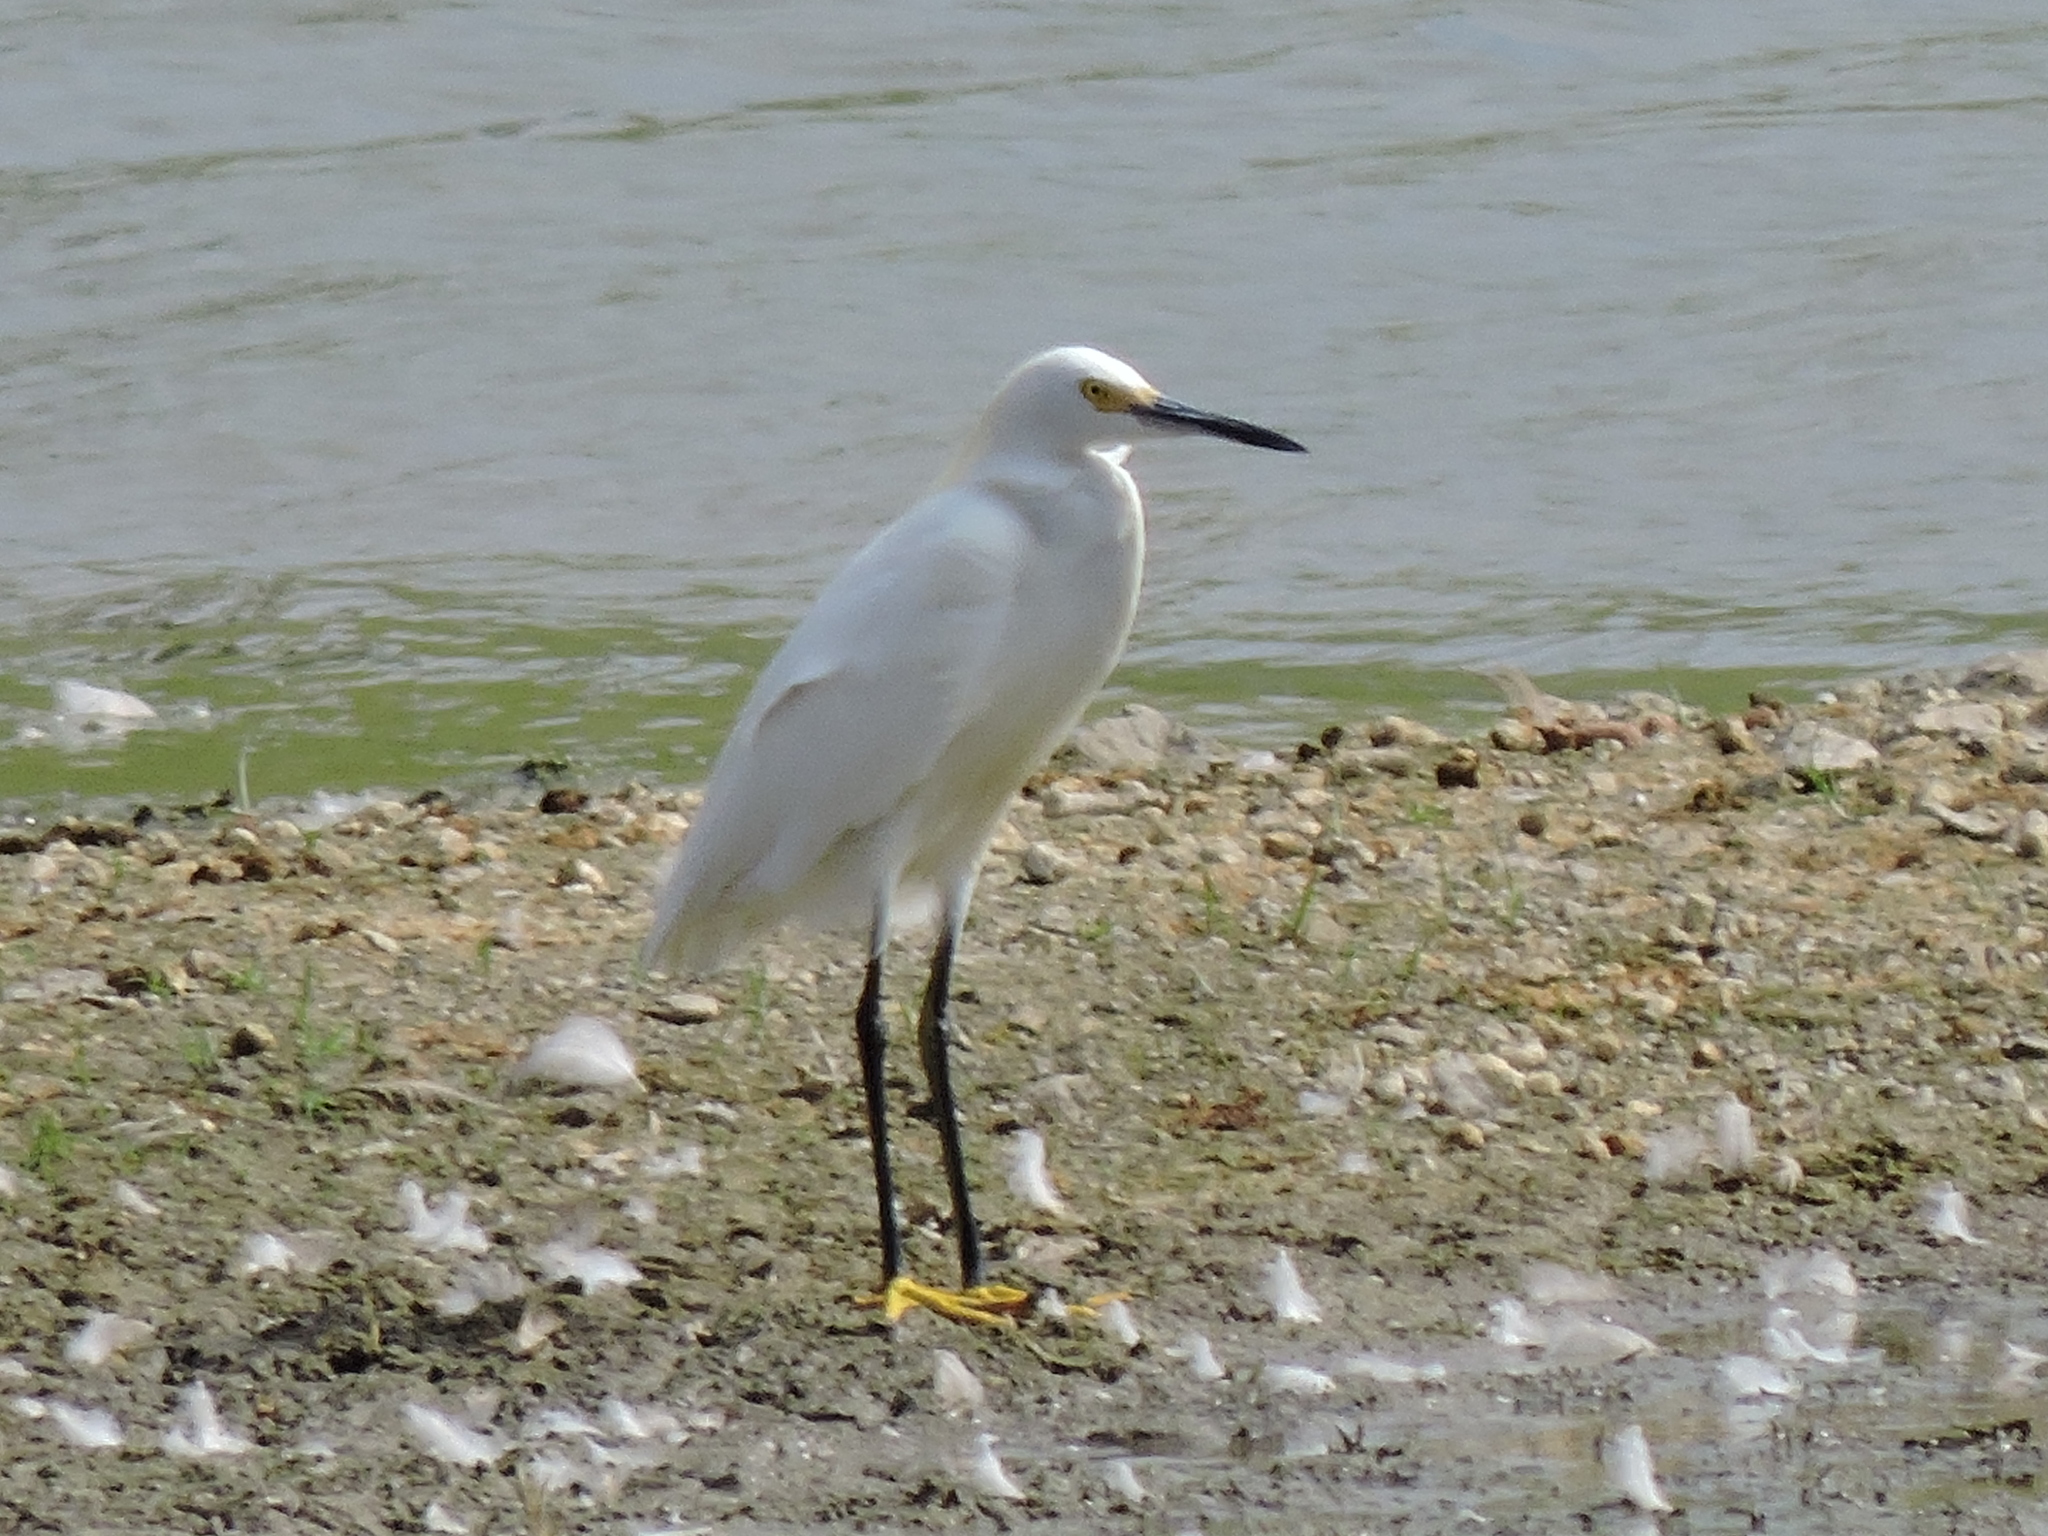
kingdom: Animalia
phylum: Chordata
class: Aves
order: Pelecaniformes
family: Ardeidae
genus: Egretta
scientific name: Egretta thula
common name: Snowy egret
